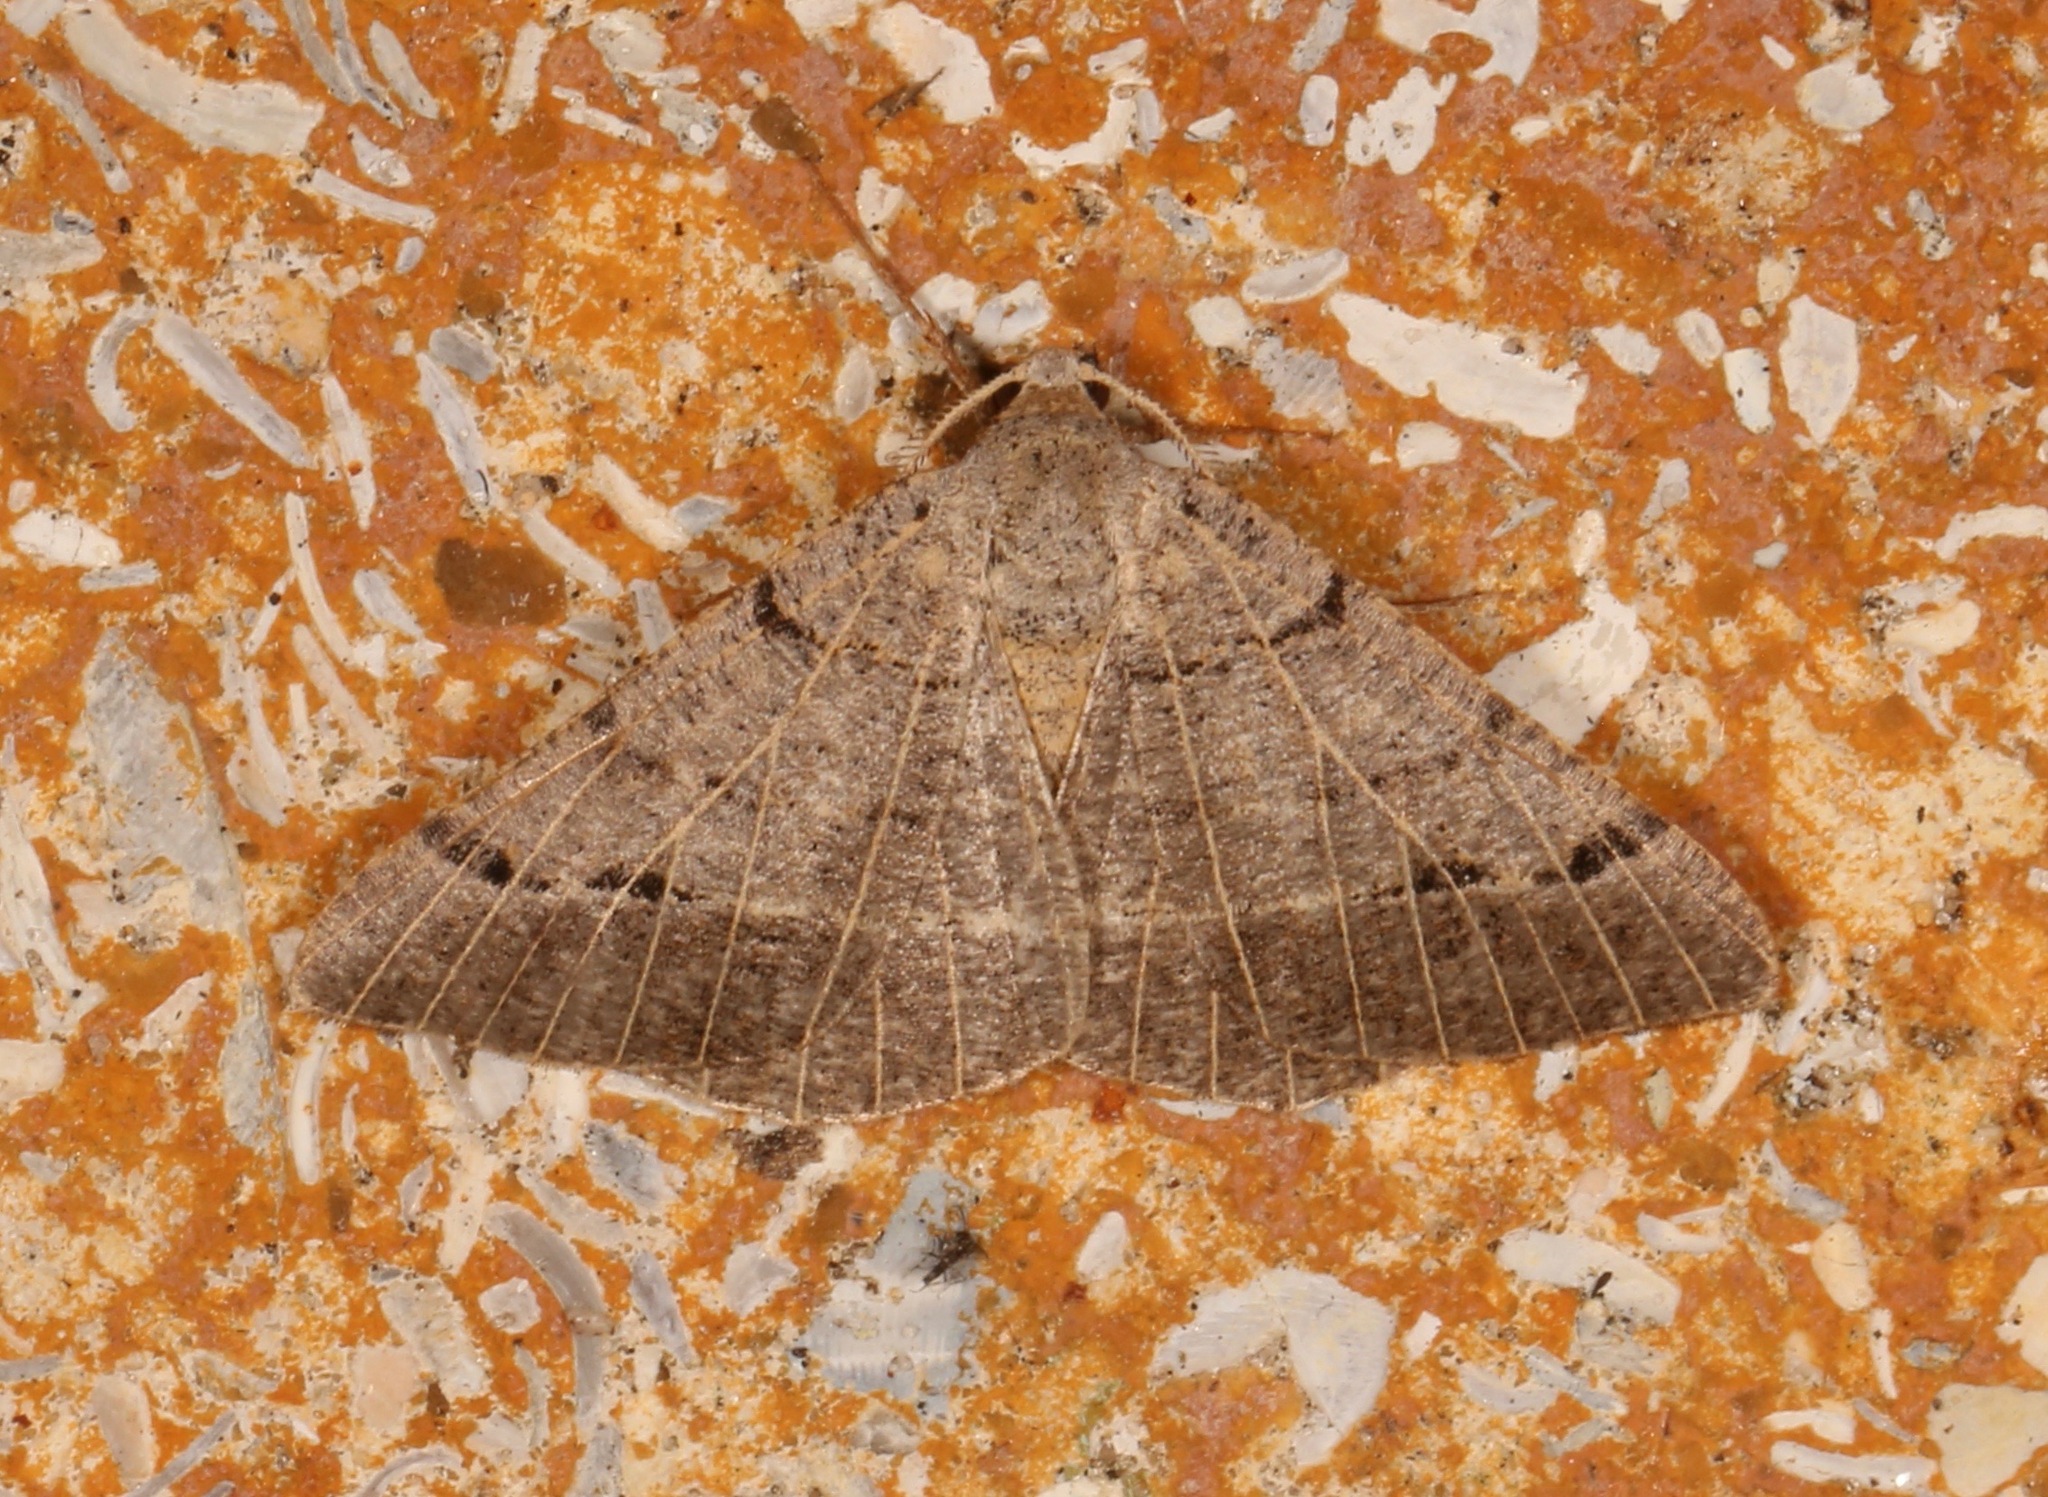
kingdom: Animalia
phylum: Arthropoda
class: Insecta
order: Lepidoptera
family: Geometridae
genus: Isturgia
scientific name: Isturgia dislocaria
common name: Pale-viened enconista
